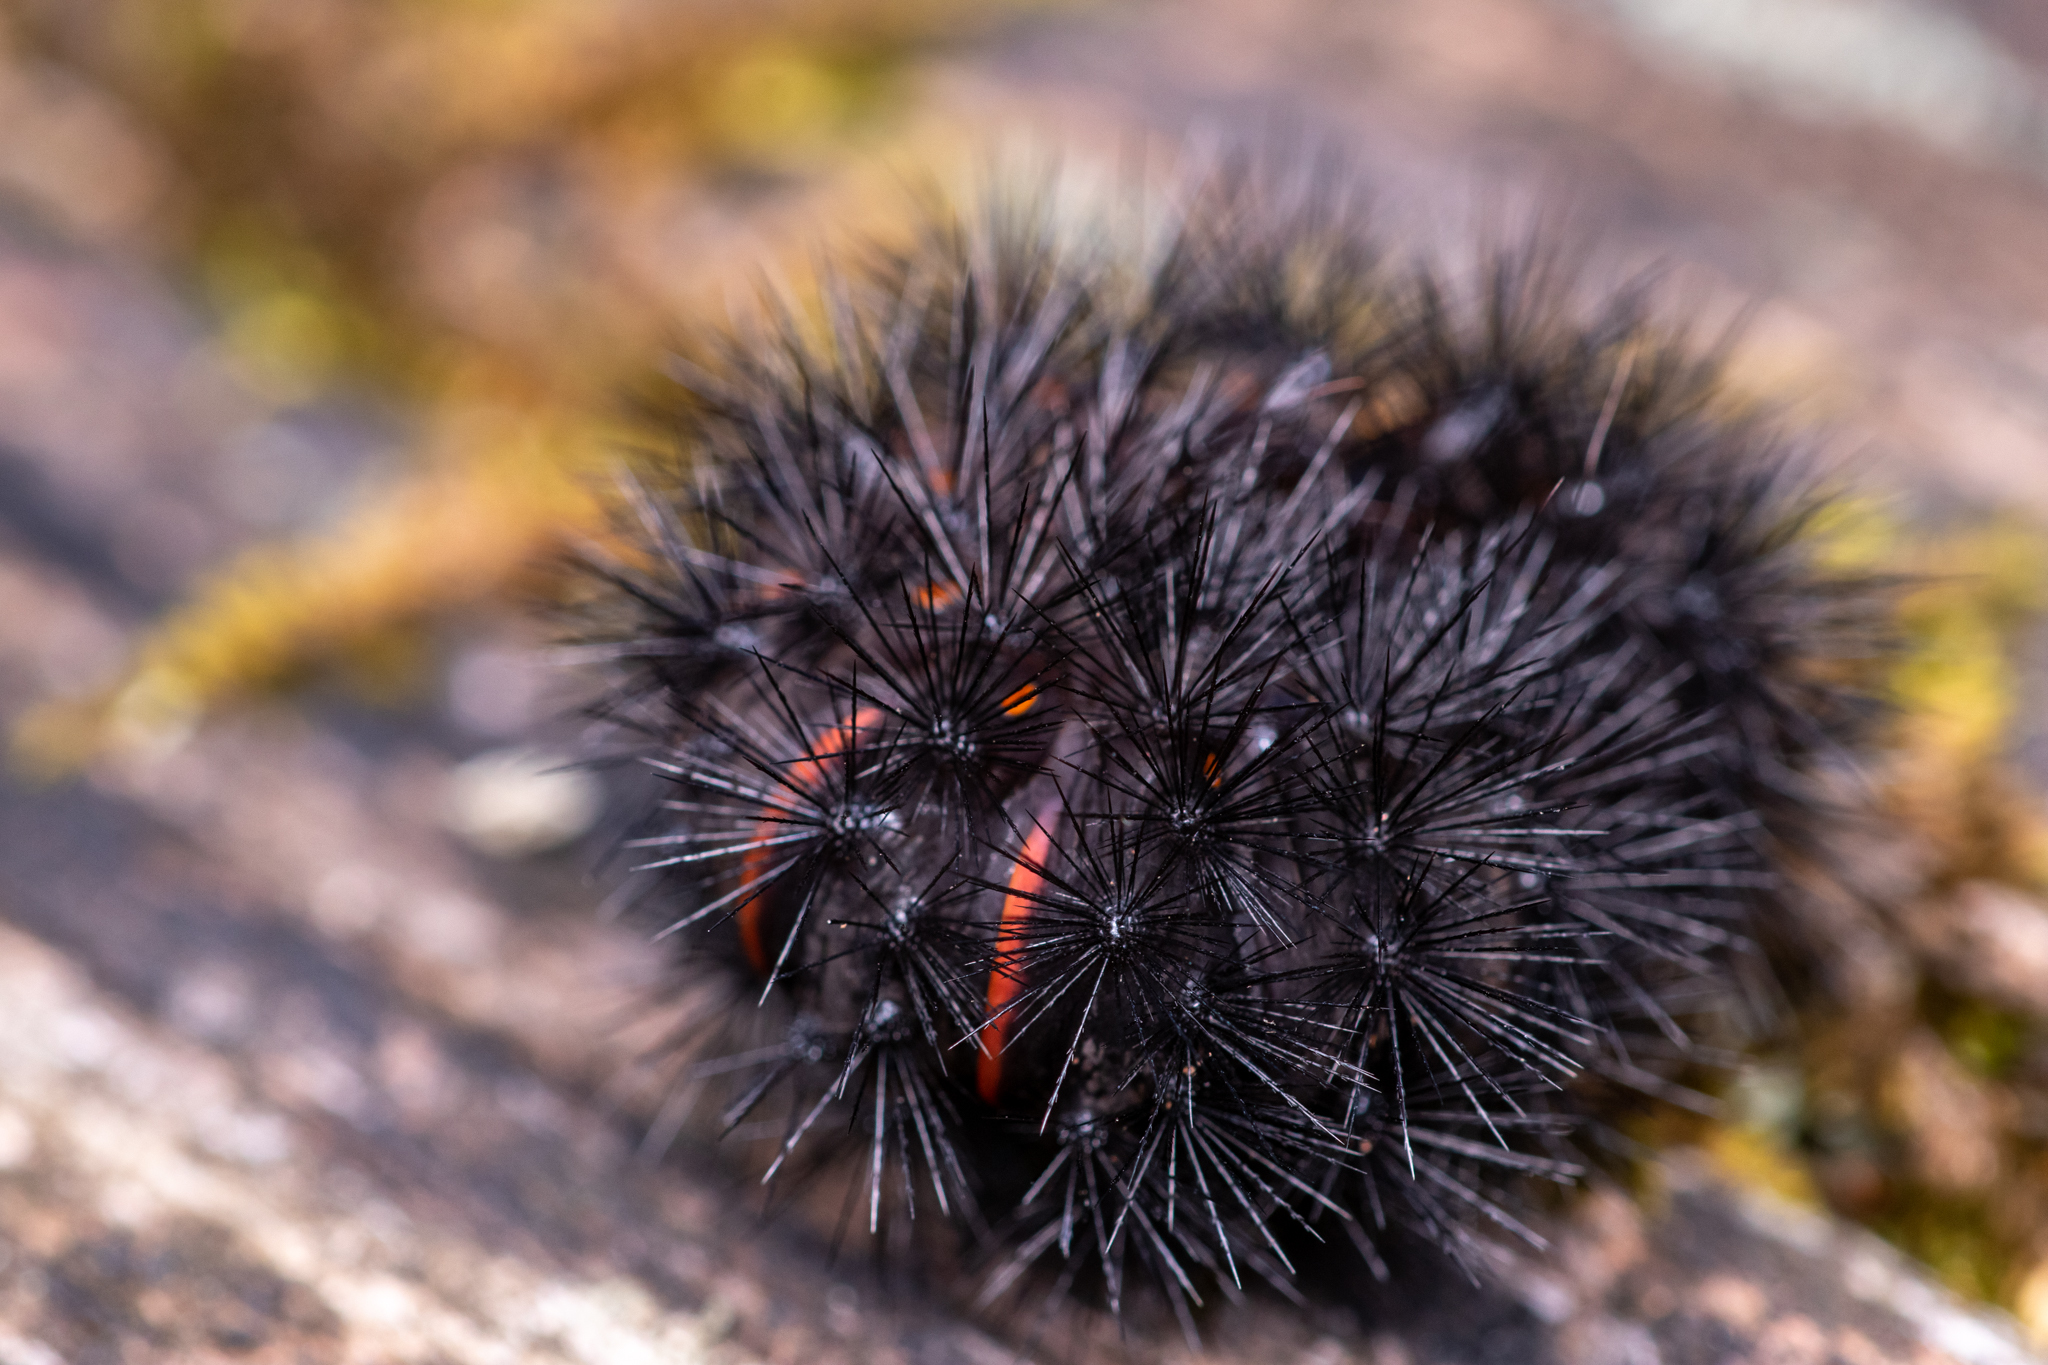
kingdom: Animalia
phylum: Arthropoda
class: Insecta
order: Lepidoptera
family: Erebidae
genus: Hypercompe
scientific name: Hypercompe scribonia
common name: Giant leopard moth
